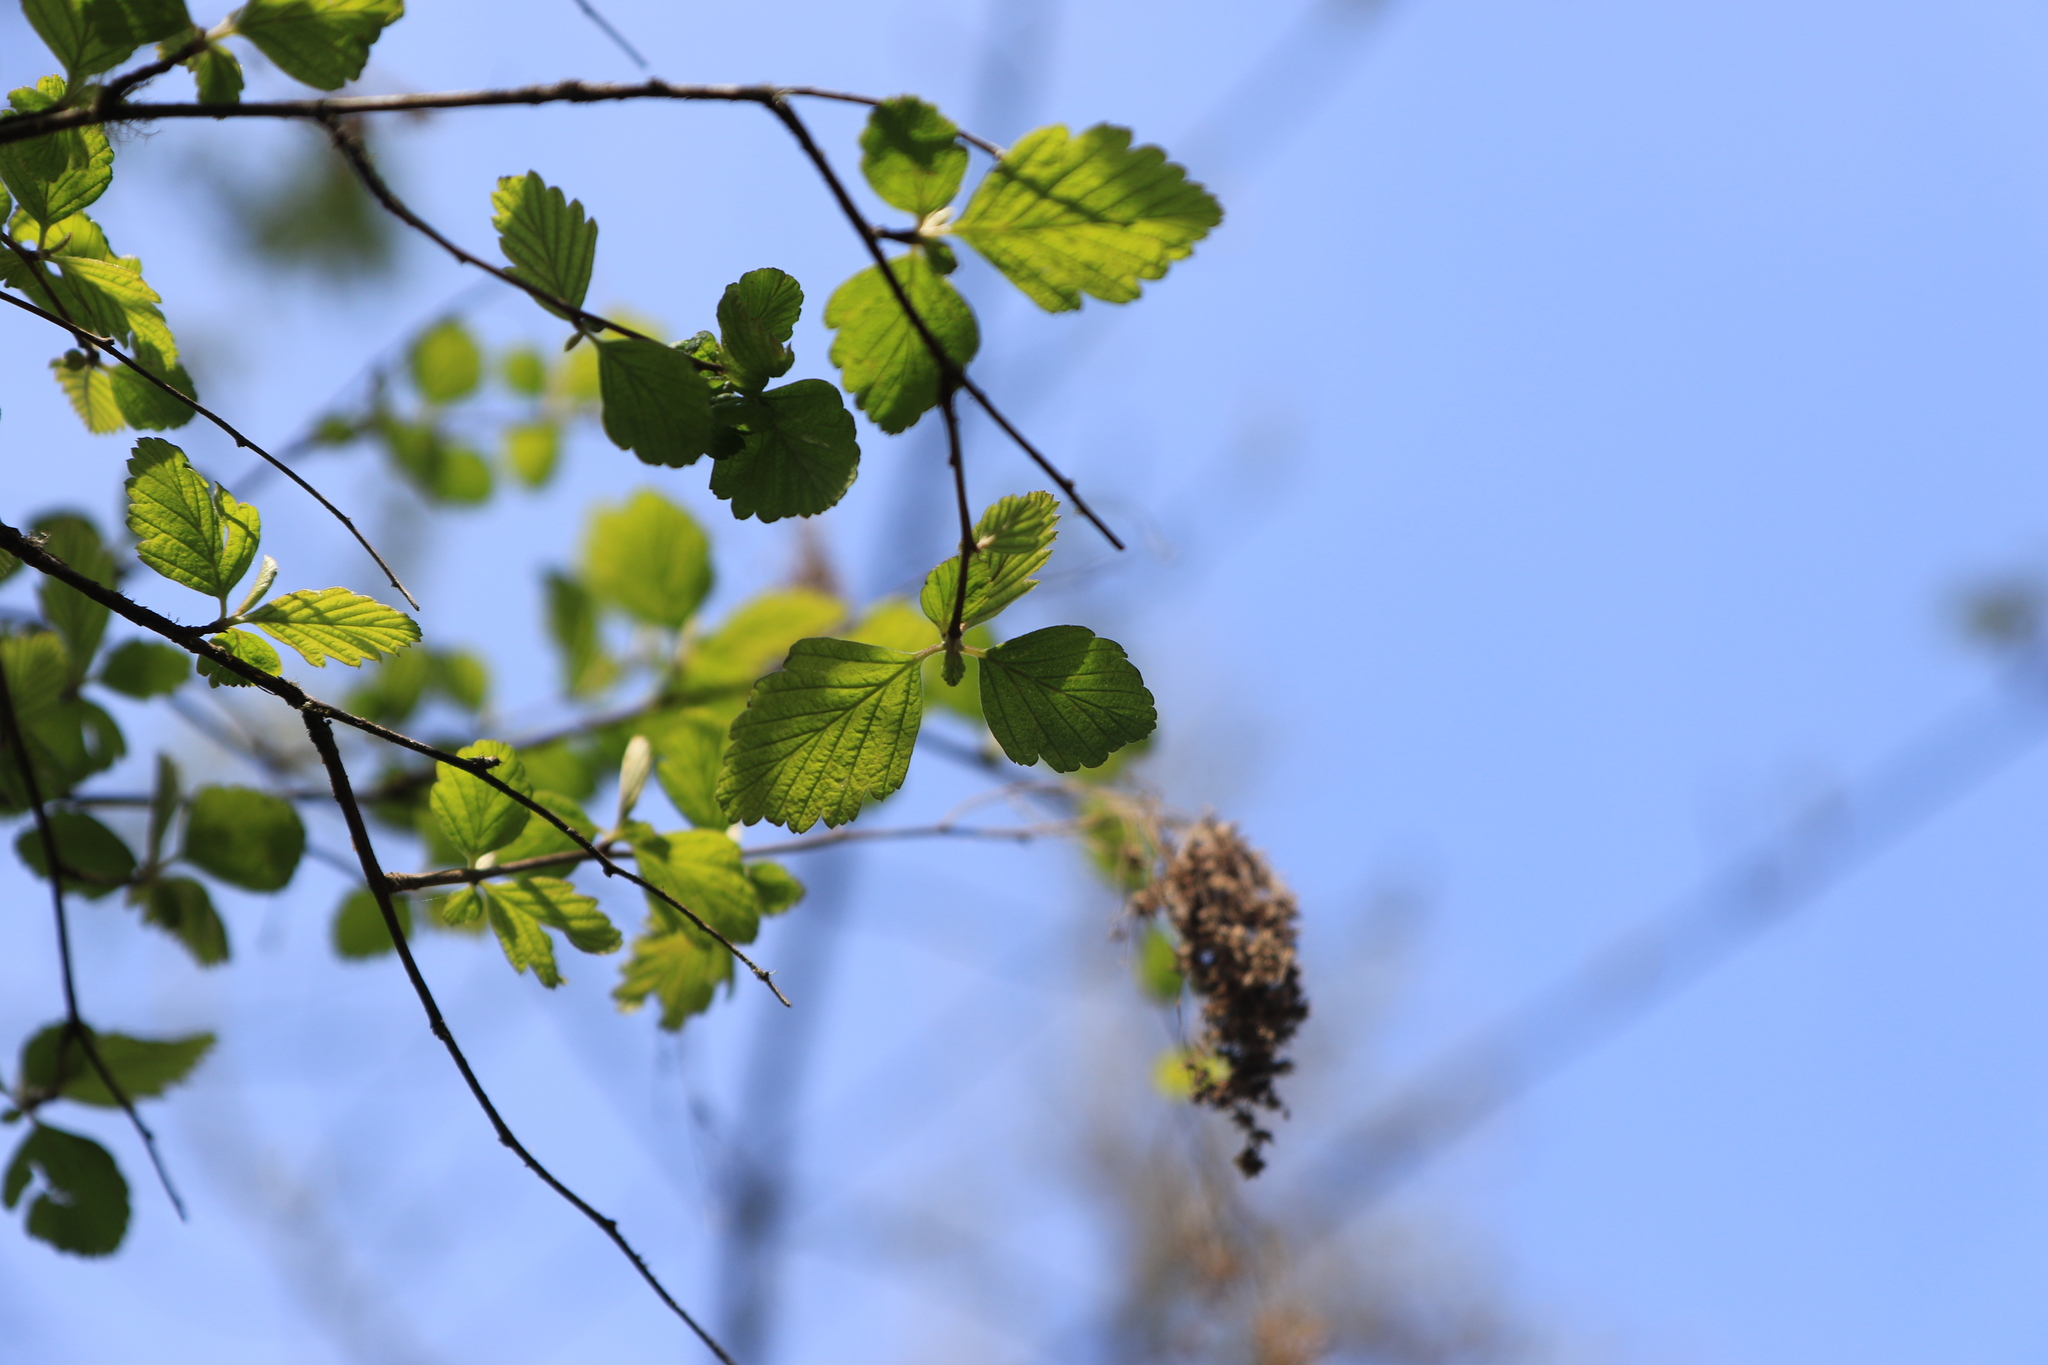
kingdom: Plantae
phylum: Tracheophyta
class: Magnoliopsida
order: Rosales
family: Rosaceae
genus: Holodiscus
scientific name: Holodiscus discolor
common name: Oceanspray
